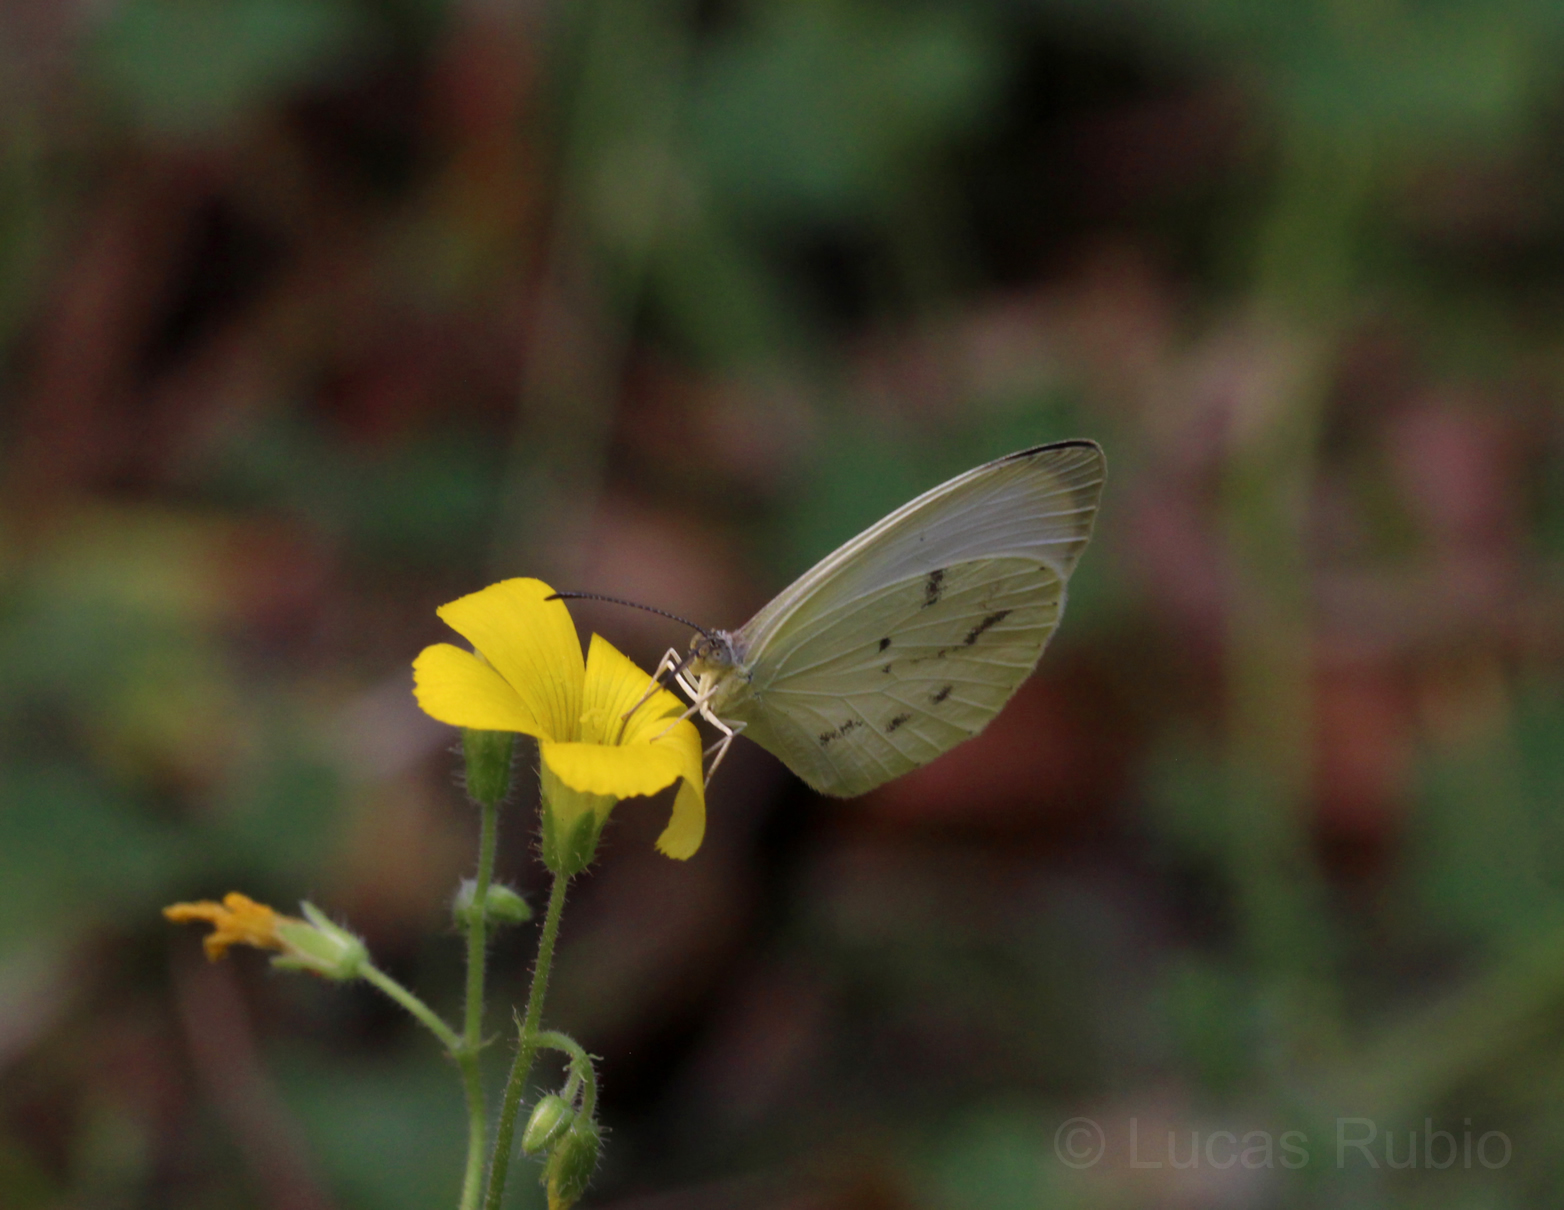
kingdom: Animalia
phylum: Arthropoda
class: Insecta
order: Lepidoptera
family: Pieridae
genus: Abaeis
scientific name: Abaeis albula
